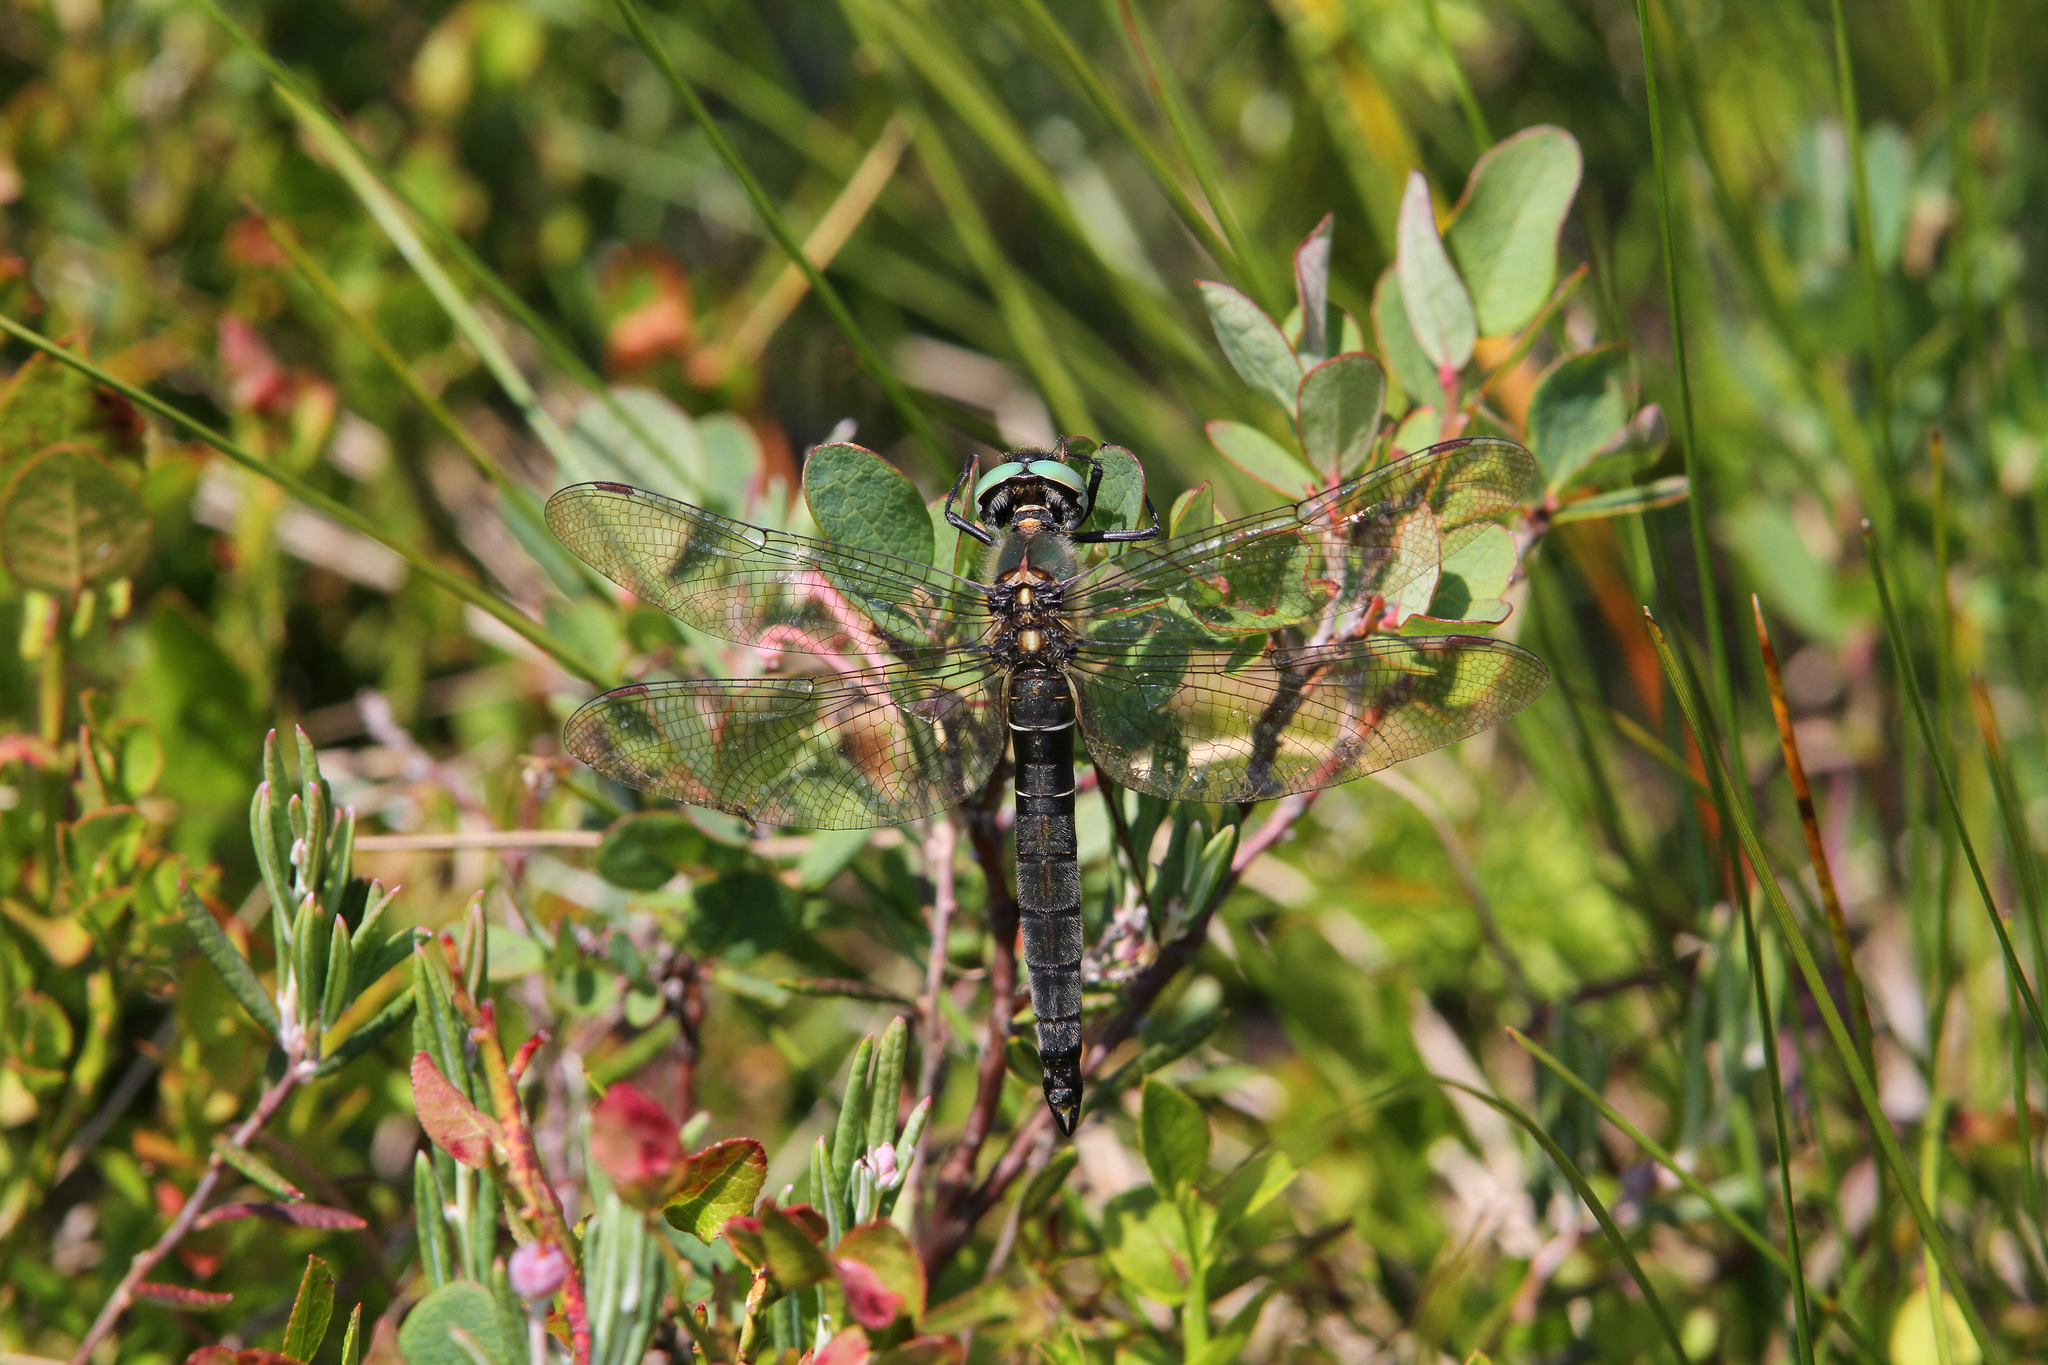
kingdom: Animalia
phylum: Arthropoda
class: Insecta
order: Odonata
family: Corduliidae
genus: Somatochlora
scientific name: Somatochlora alpestris
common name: Alpine emerald
